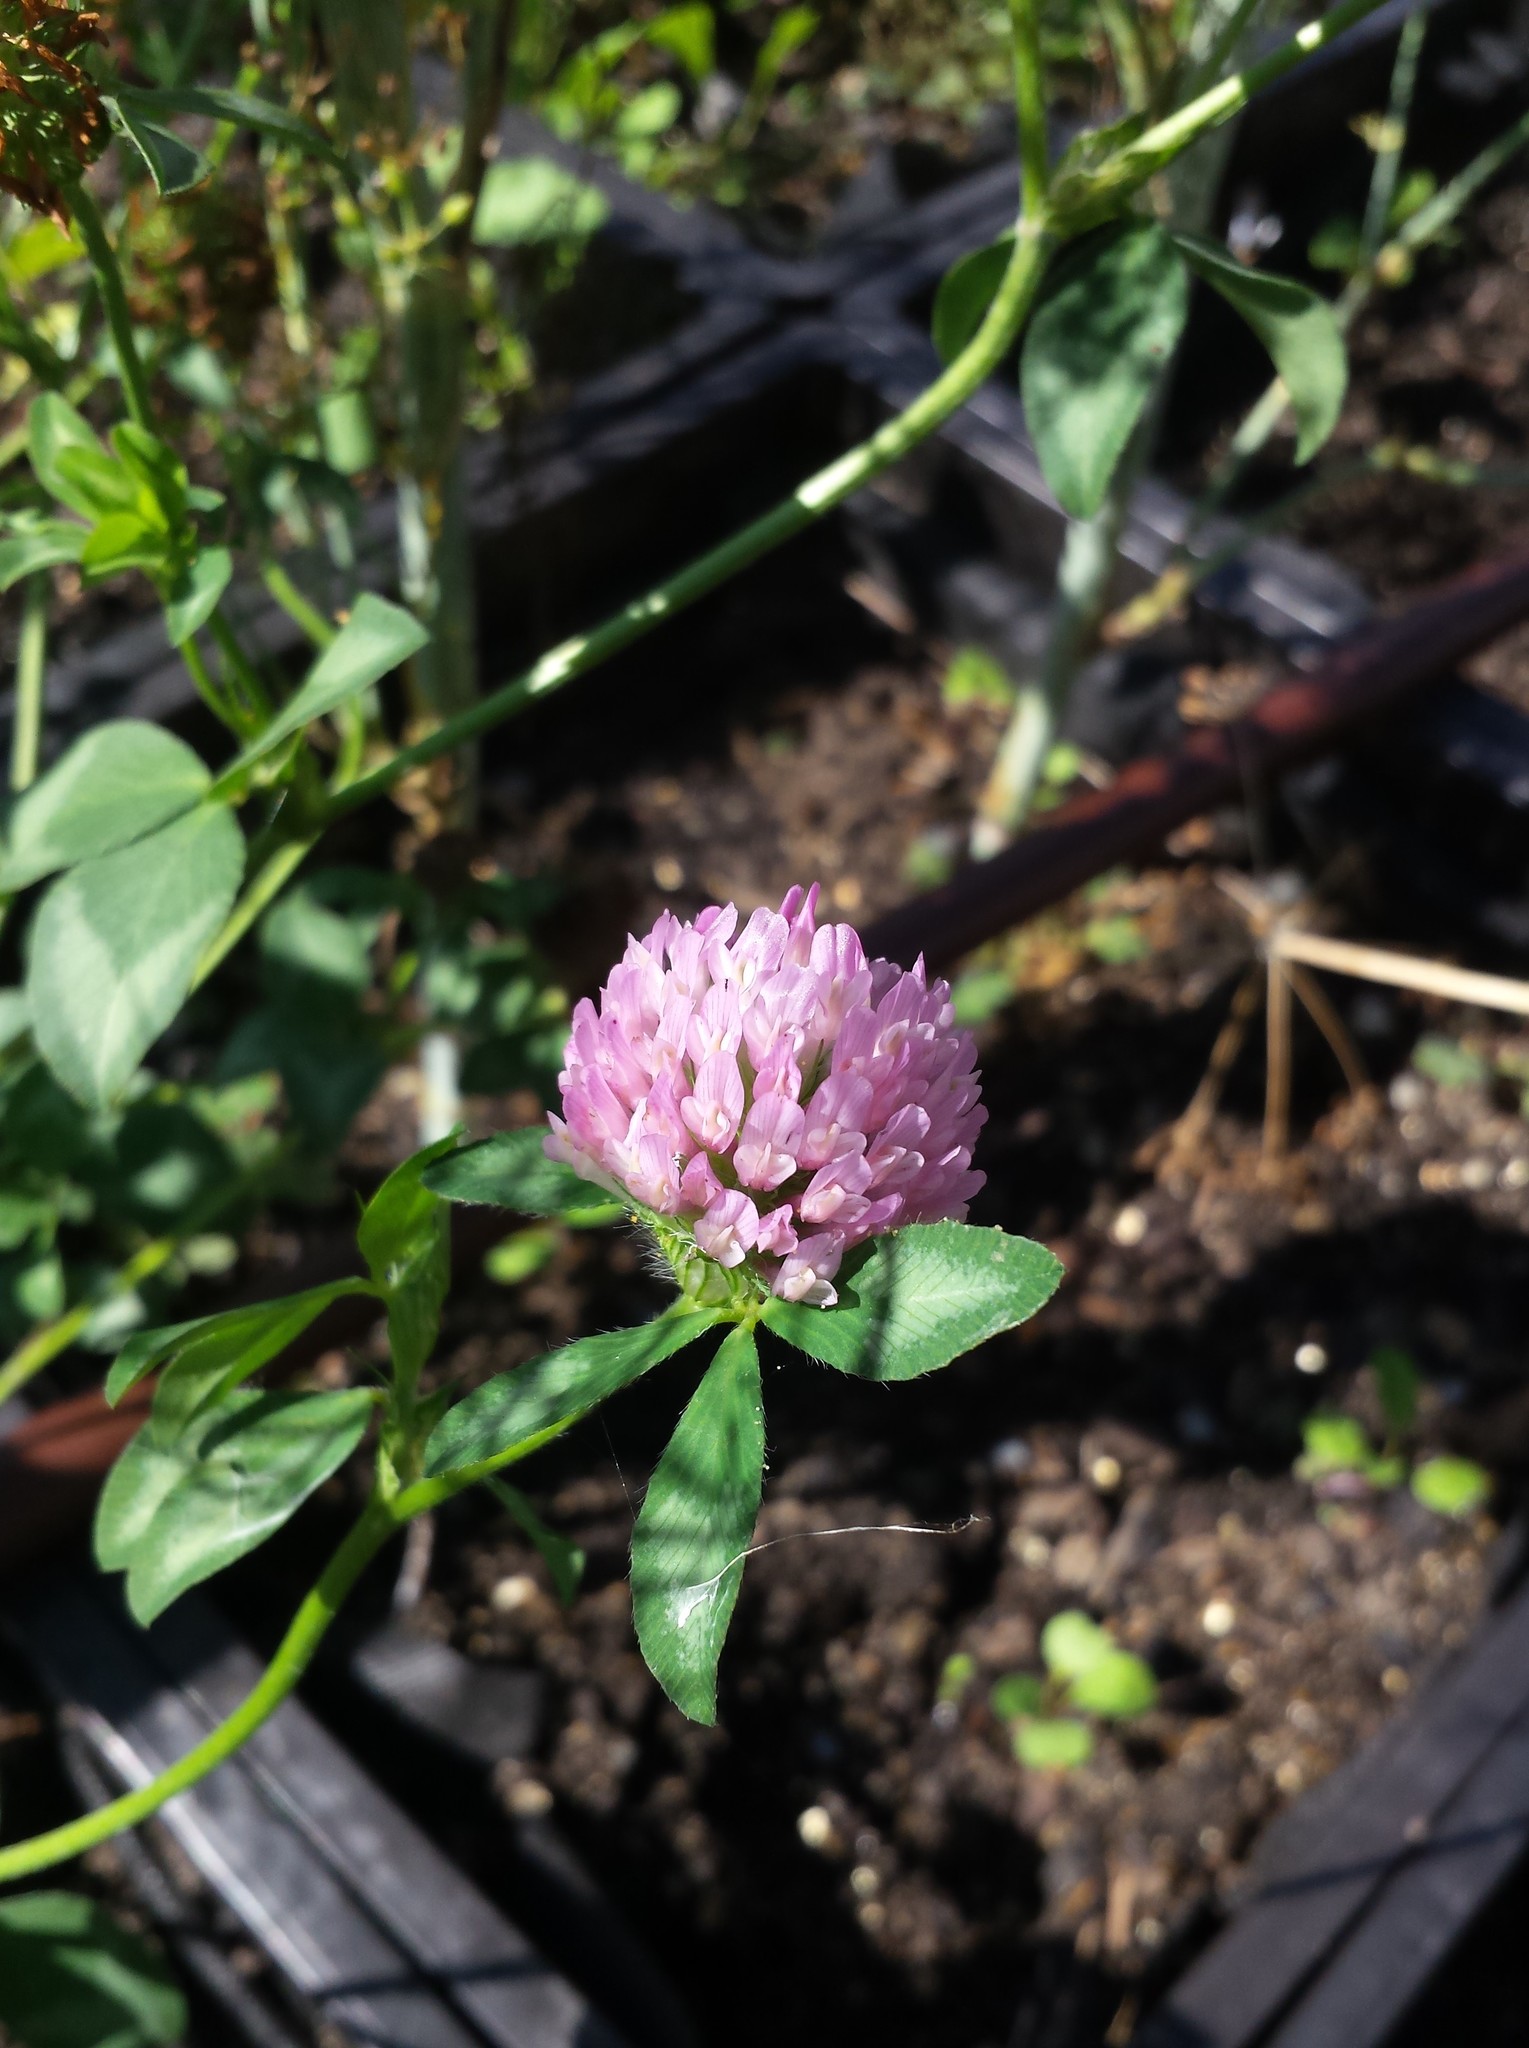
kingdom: Plantae
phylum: Tracheophyta
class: Magnoliopsida
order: Fabales
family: Fabaceae
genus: Trifolium
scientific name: Trifolium pratense
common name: Red clover
